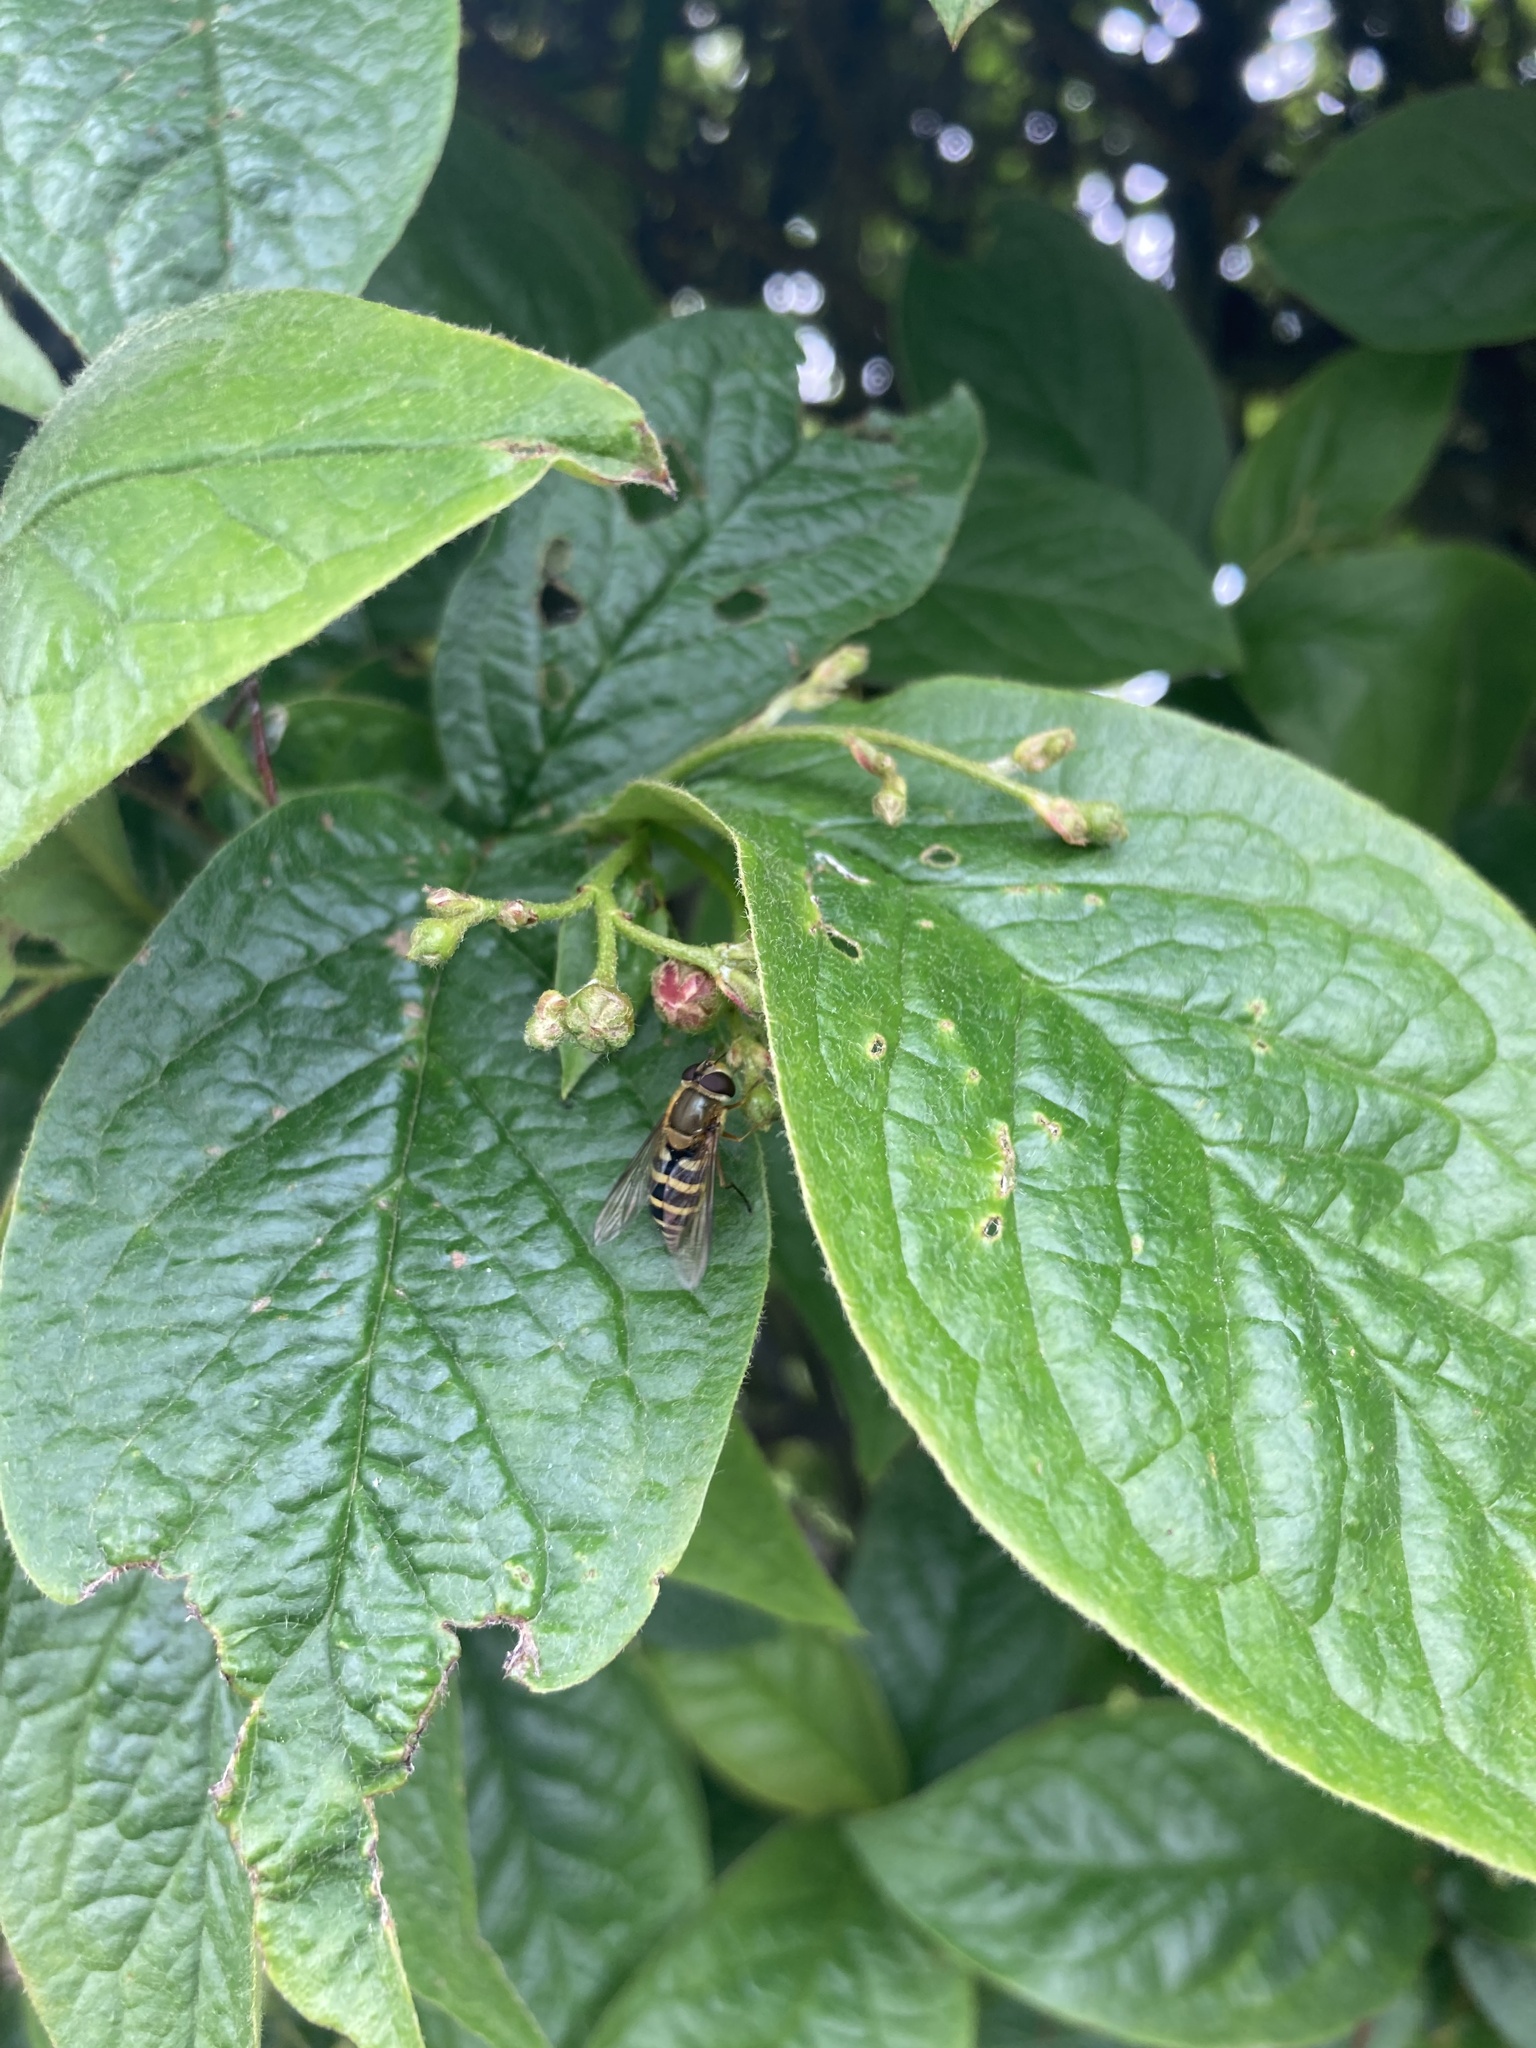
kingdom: Animalia
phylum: Arthropoda
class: Insecta
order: Diptera
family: Syrphidae
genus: Syrphus
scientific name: Syrphus ribesii
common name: Common flower fly
